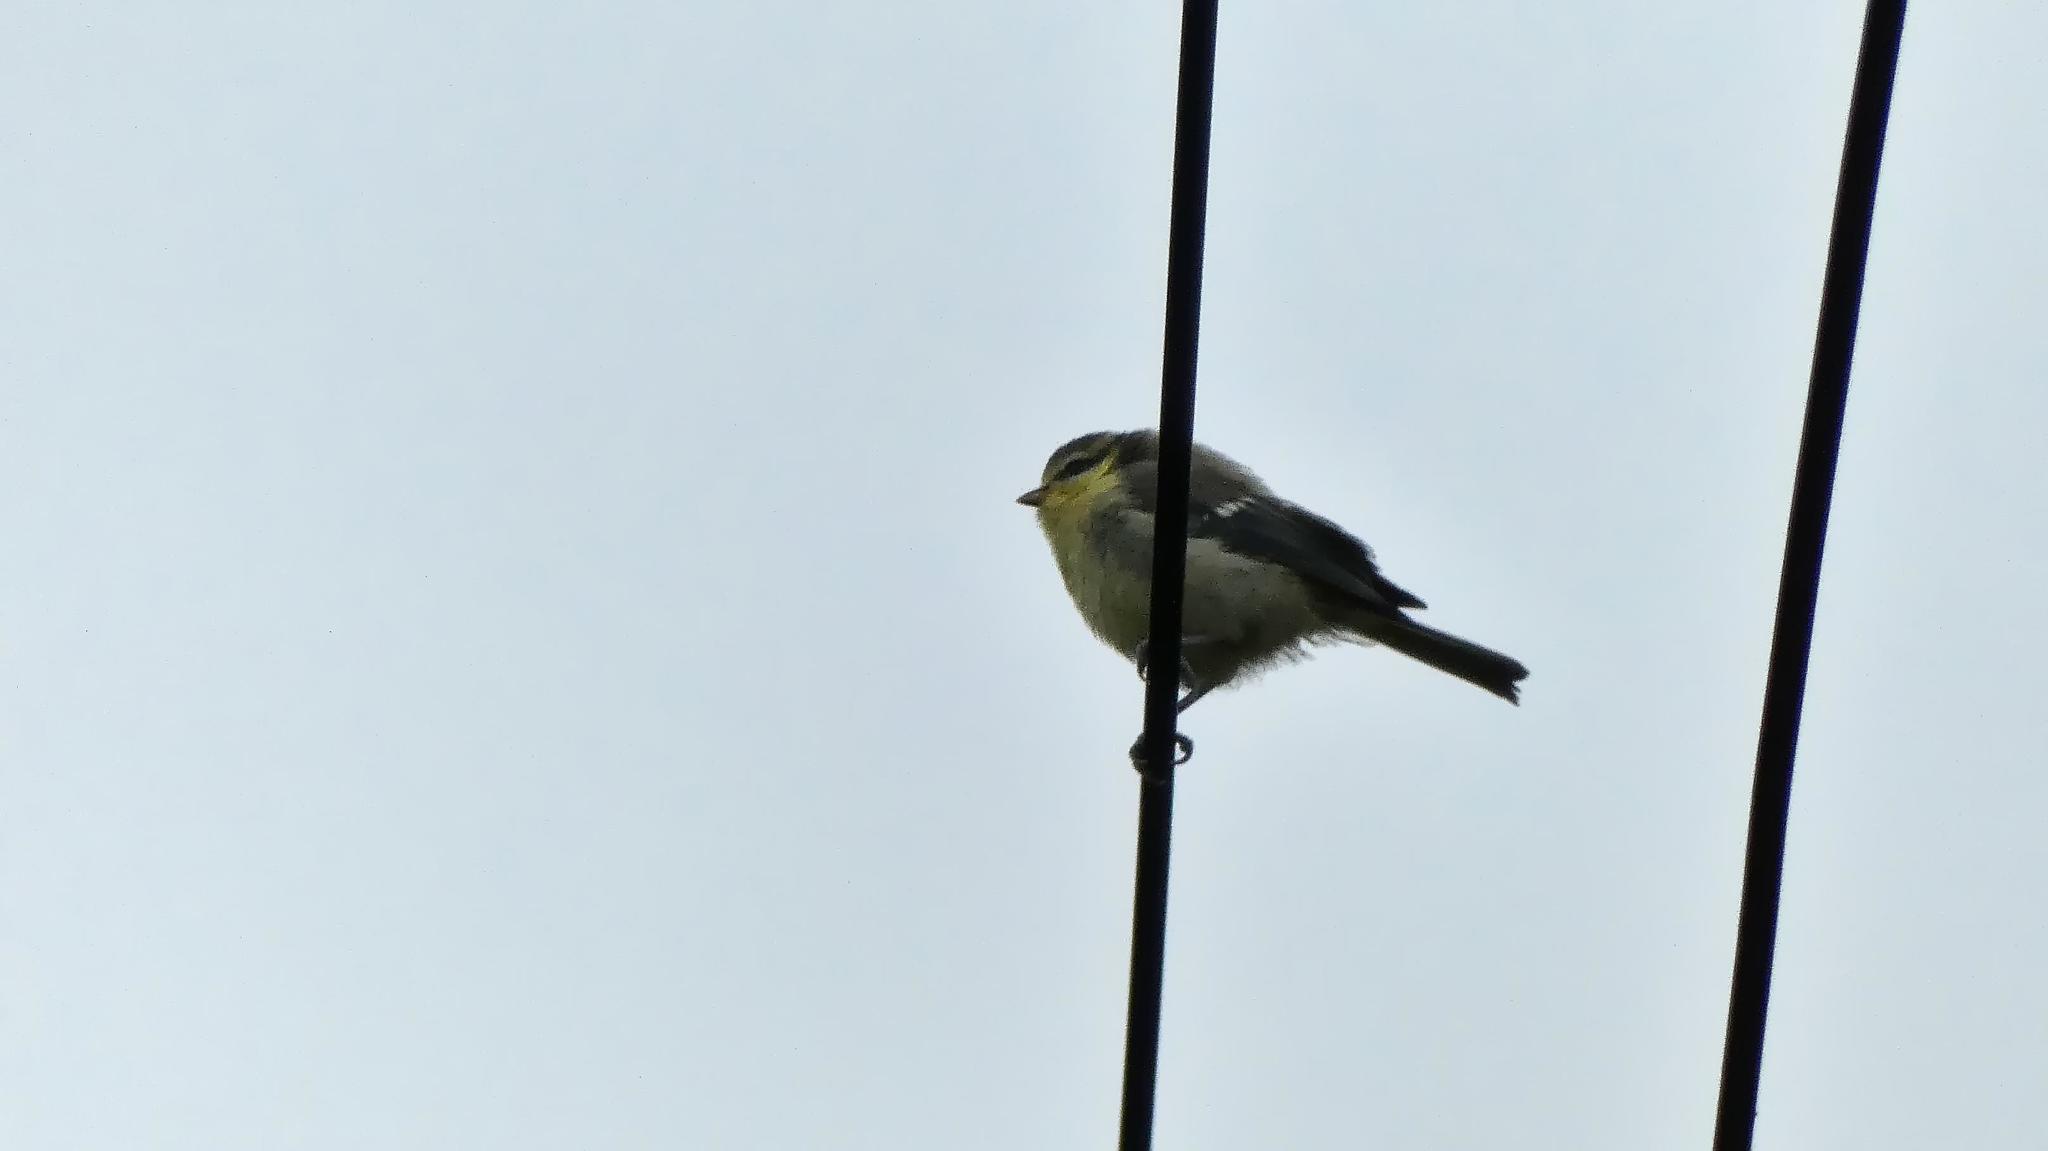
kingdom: Animalia
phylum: Chordata
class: Aves
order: Passeriformes
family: Paridae
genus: Cyanistes
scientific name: Cyanistes caeruleus
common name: Eurasian blue tit
